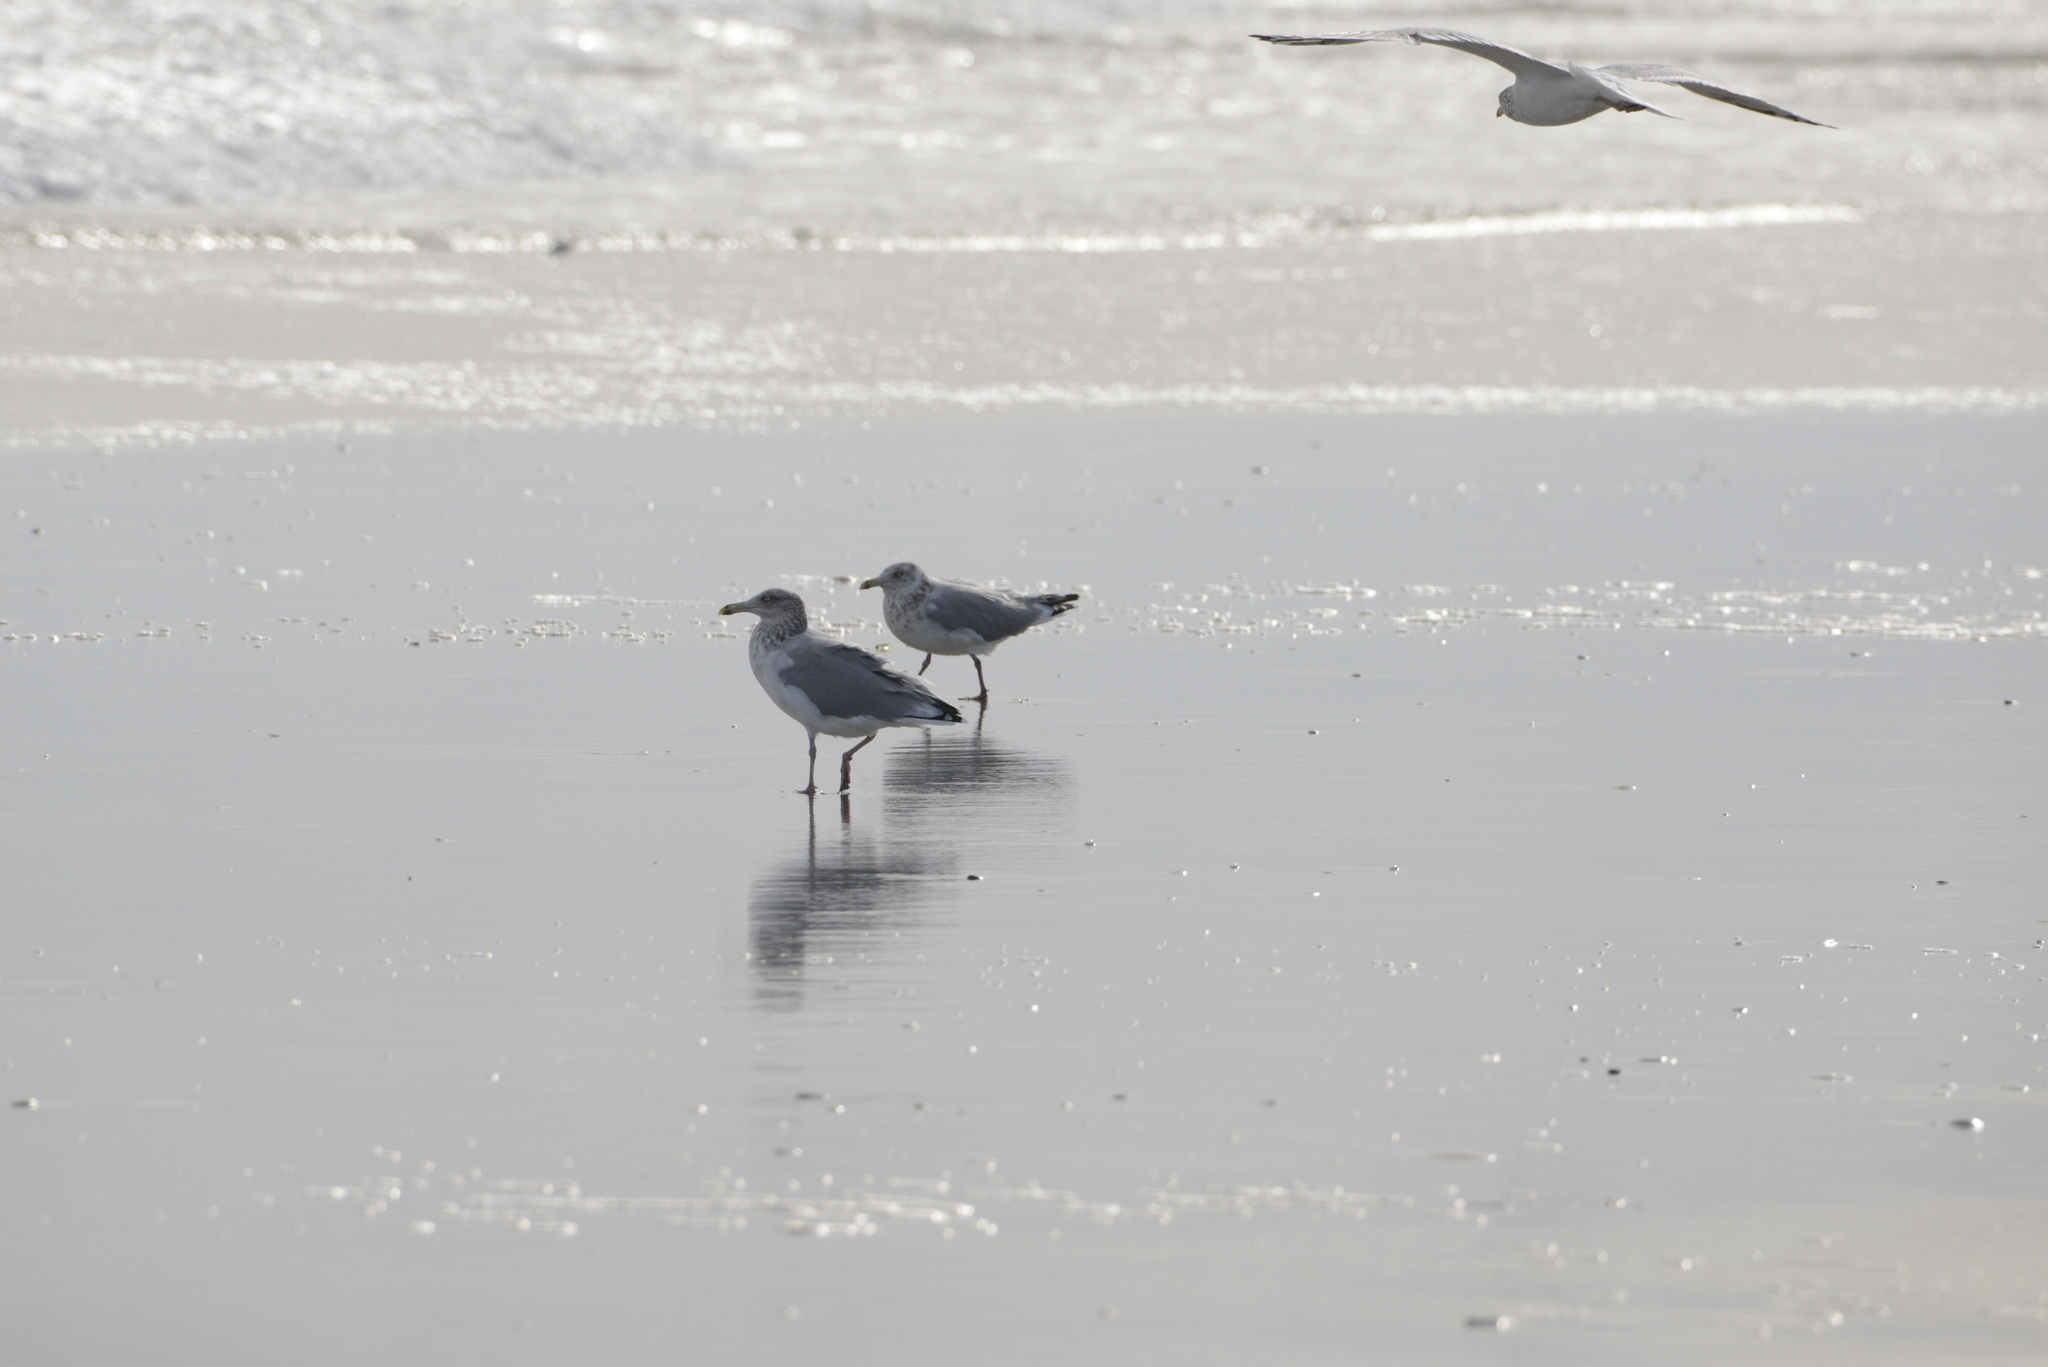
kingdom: Animalia
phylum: Chordata
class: Aves
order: Charadriiformes
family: Laridae
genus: Larus
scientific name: Larus argentatus
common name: Herring gull
